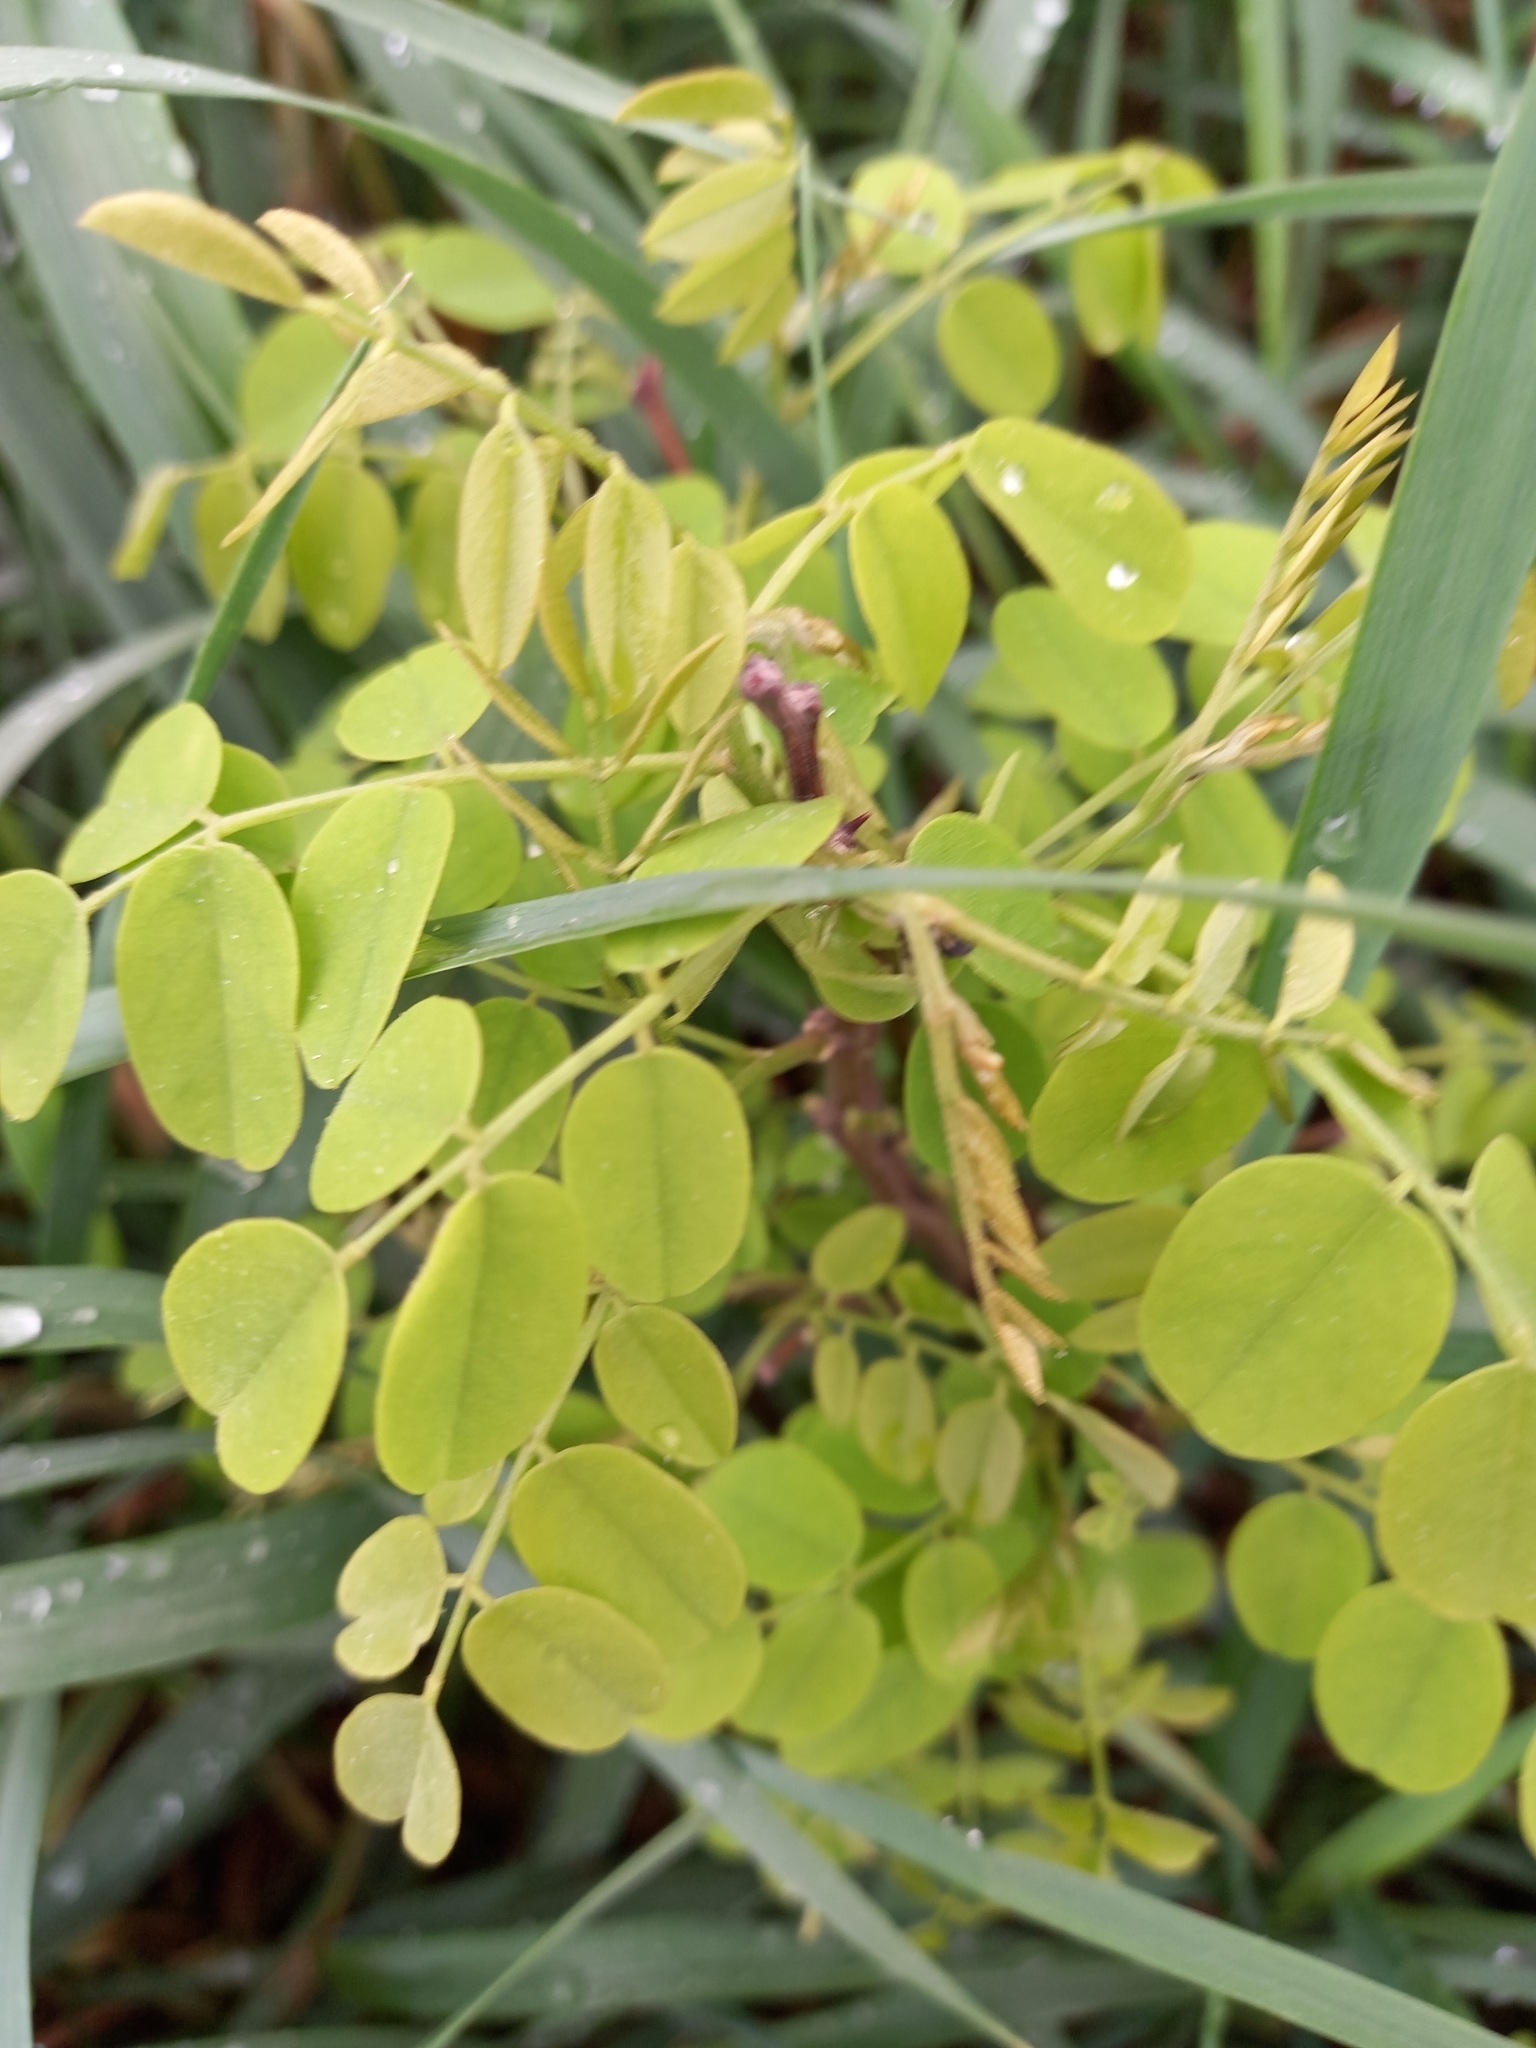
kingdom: Plantae
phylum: Tracheophyta
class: Magnoliopsida
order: Fabales
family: Fabaceae
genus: Robinia
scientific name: Robinia pseudoacacia
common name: Black locust
